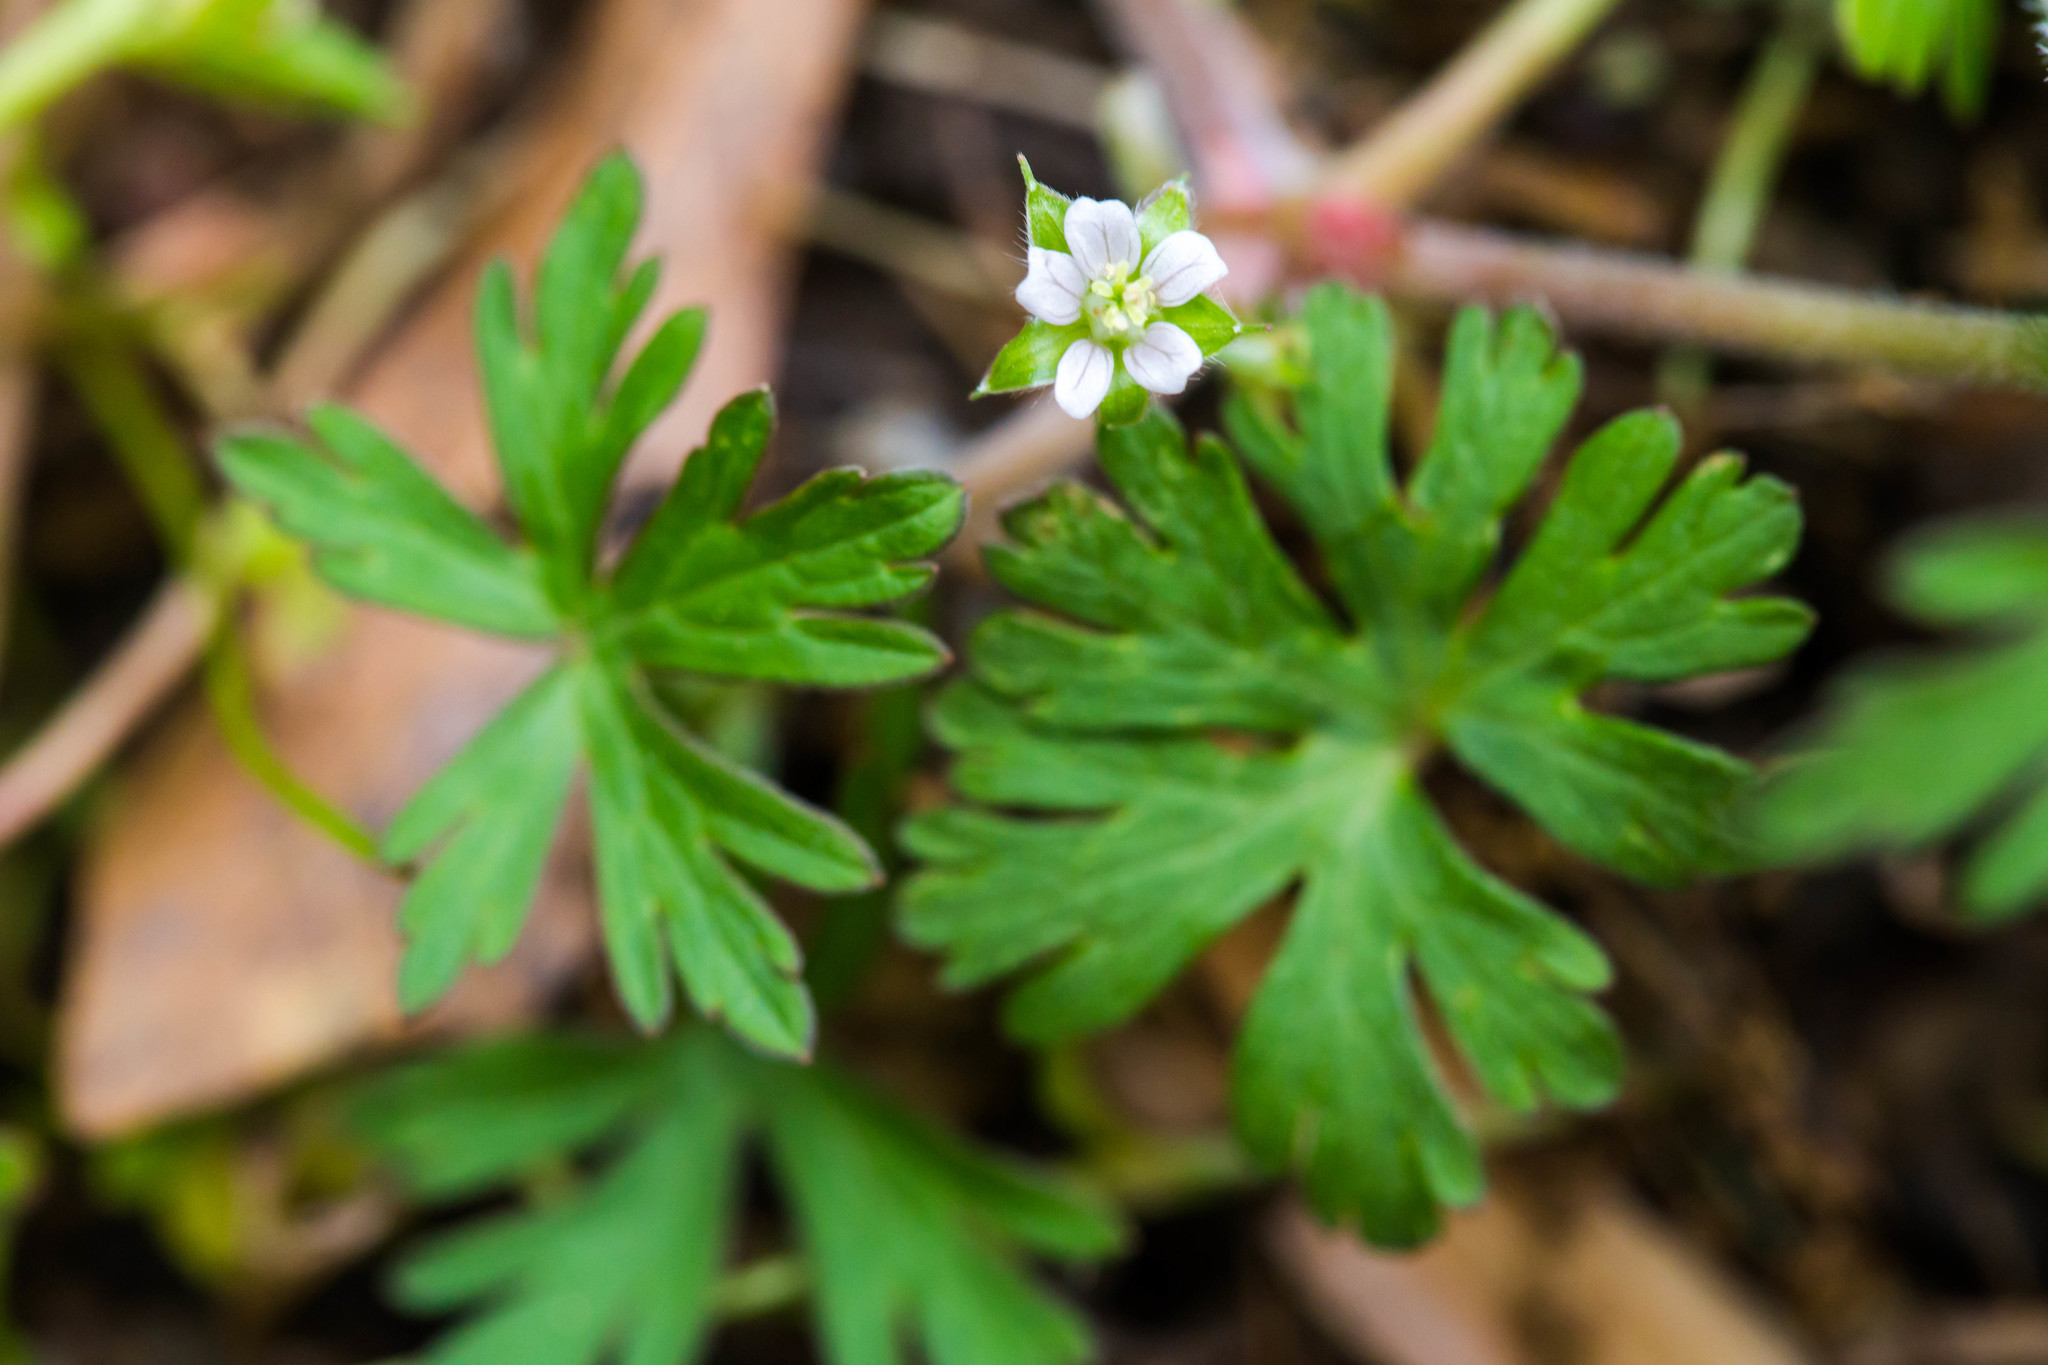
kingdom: Plantae
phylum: Tracheophyta
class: Magnoliopsida
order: Geraniales
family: Geraniaceae
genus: Geranium
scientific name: Geranium carolinianum
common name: Carolina crane's-bill
